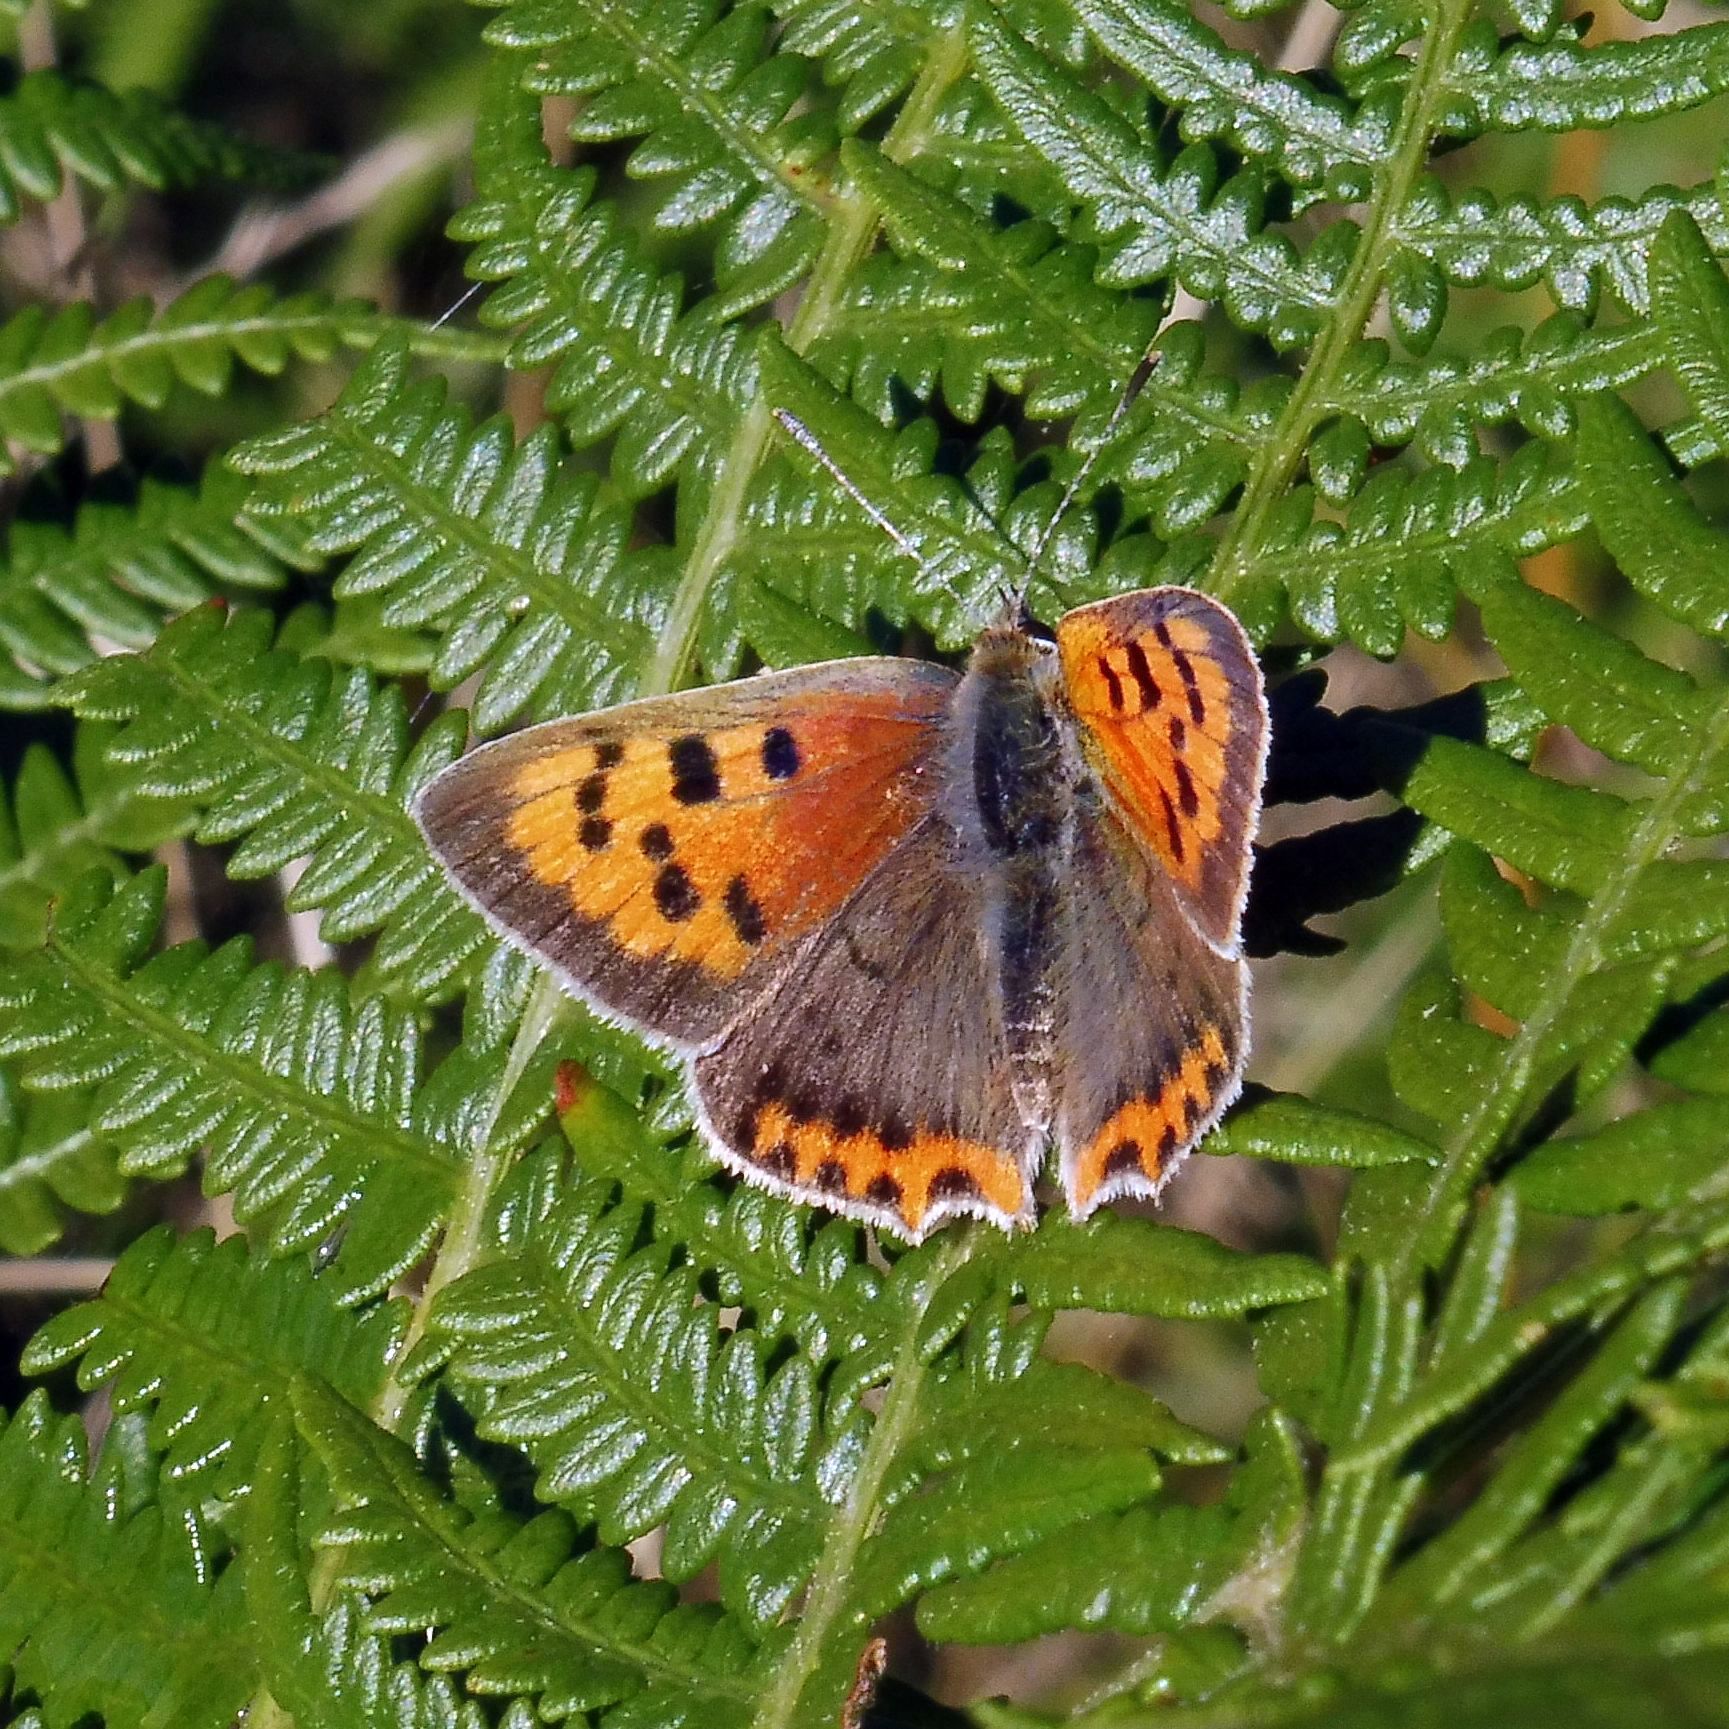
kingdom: Animalia
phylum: Arthropoda
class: Insecta
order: Lepidoptera
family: Lycaenidae
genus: Lycaena
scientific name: Lycaena phlaeas
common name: Small copper
